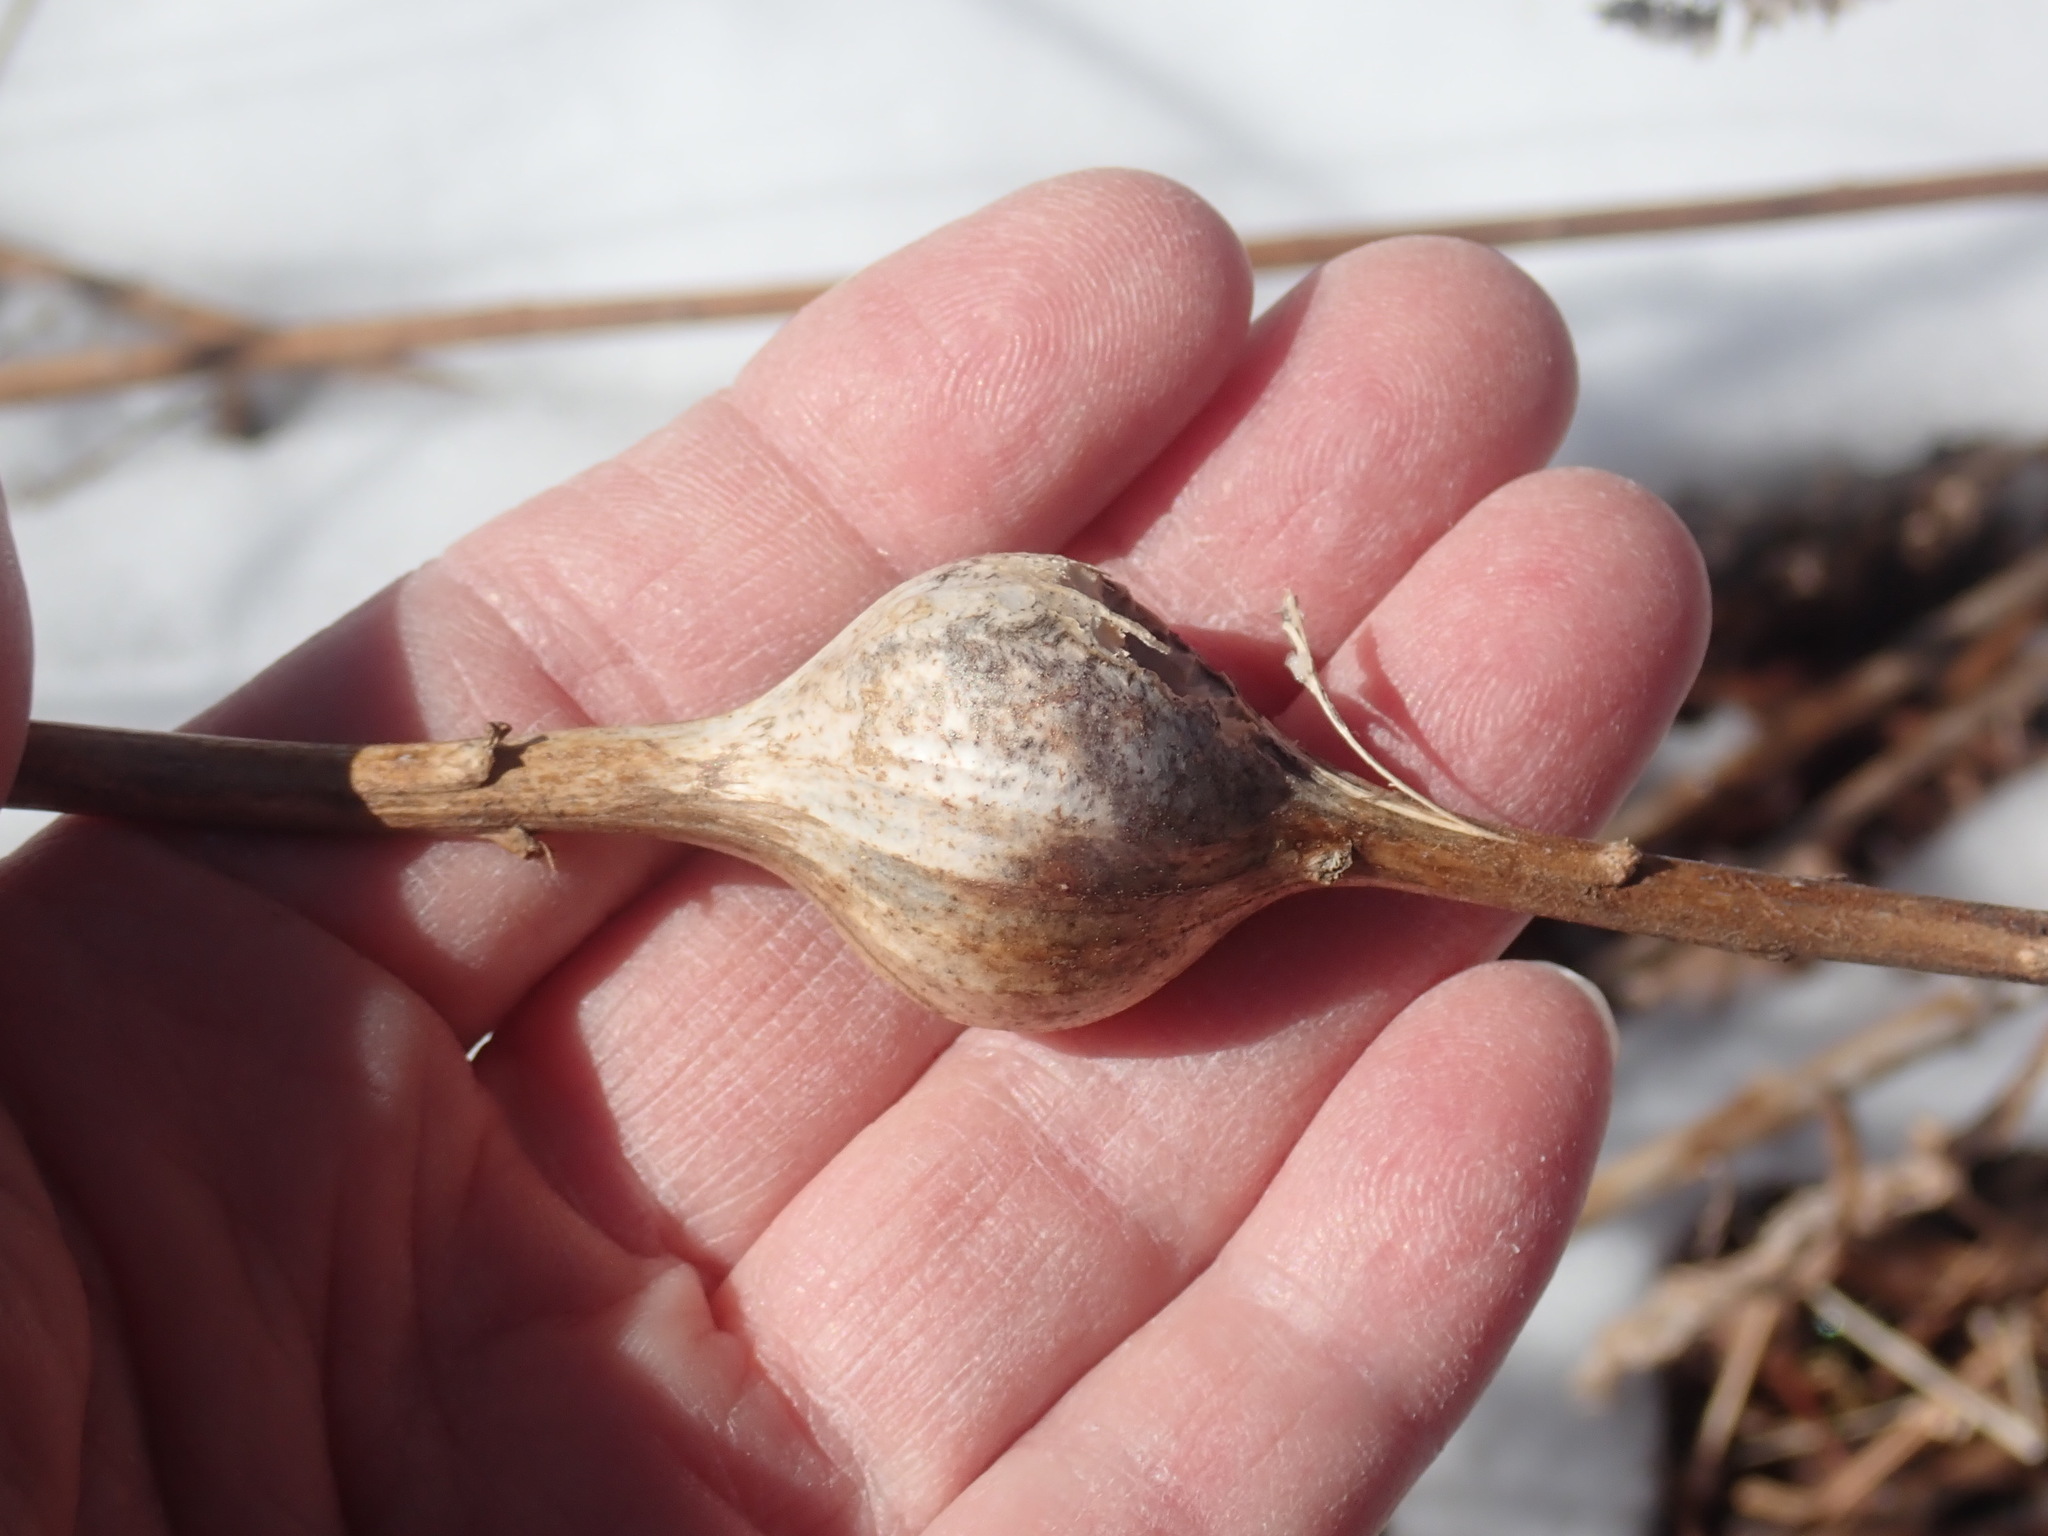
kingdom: Animalia
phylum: Arthropoda
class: Insecta
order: Diptera
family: Tephritidae
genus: Eurosta
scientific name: Eurosta solidaginis
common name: Goldenrod gall fly
